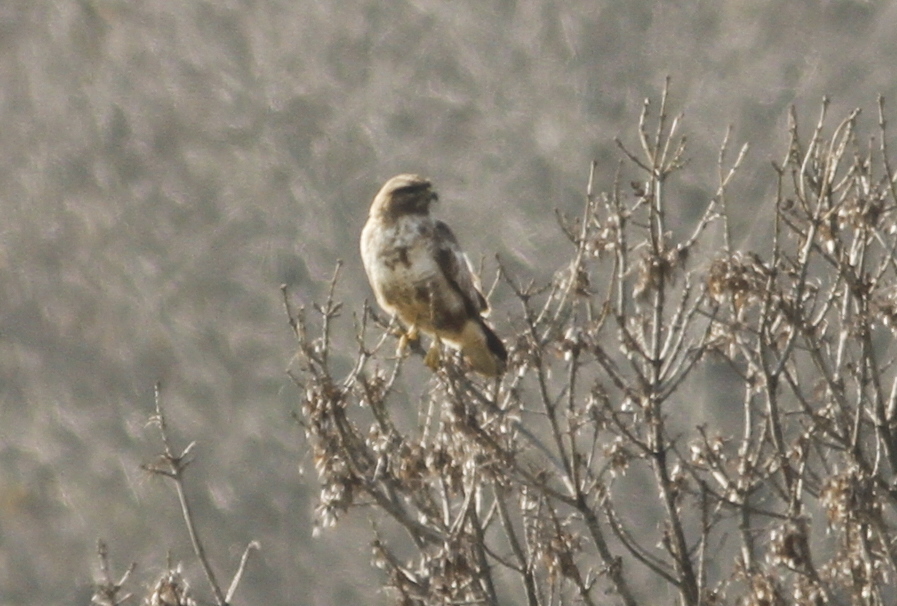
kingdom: Animalia
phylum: Chordata
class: Aves
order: Accipitriformes
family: Accipitridae
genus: Buteo
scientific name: Buteo buteo
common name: Common buzzard
